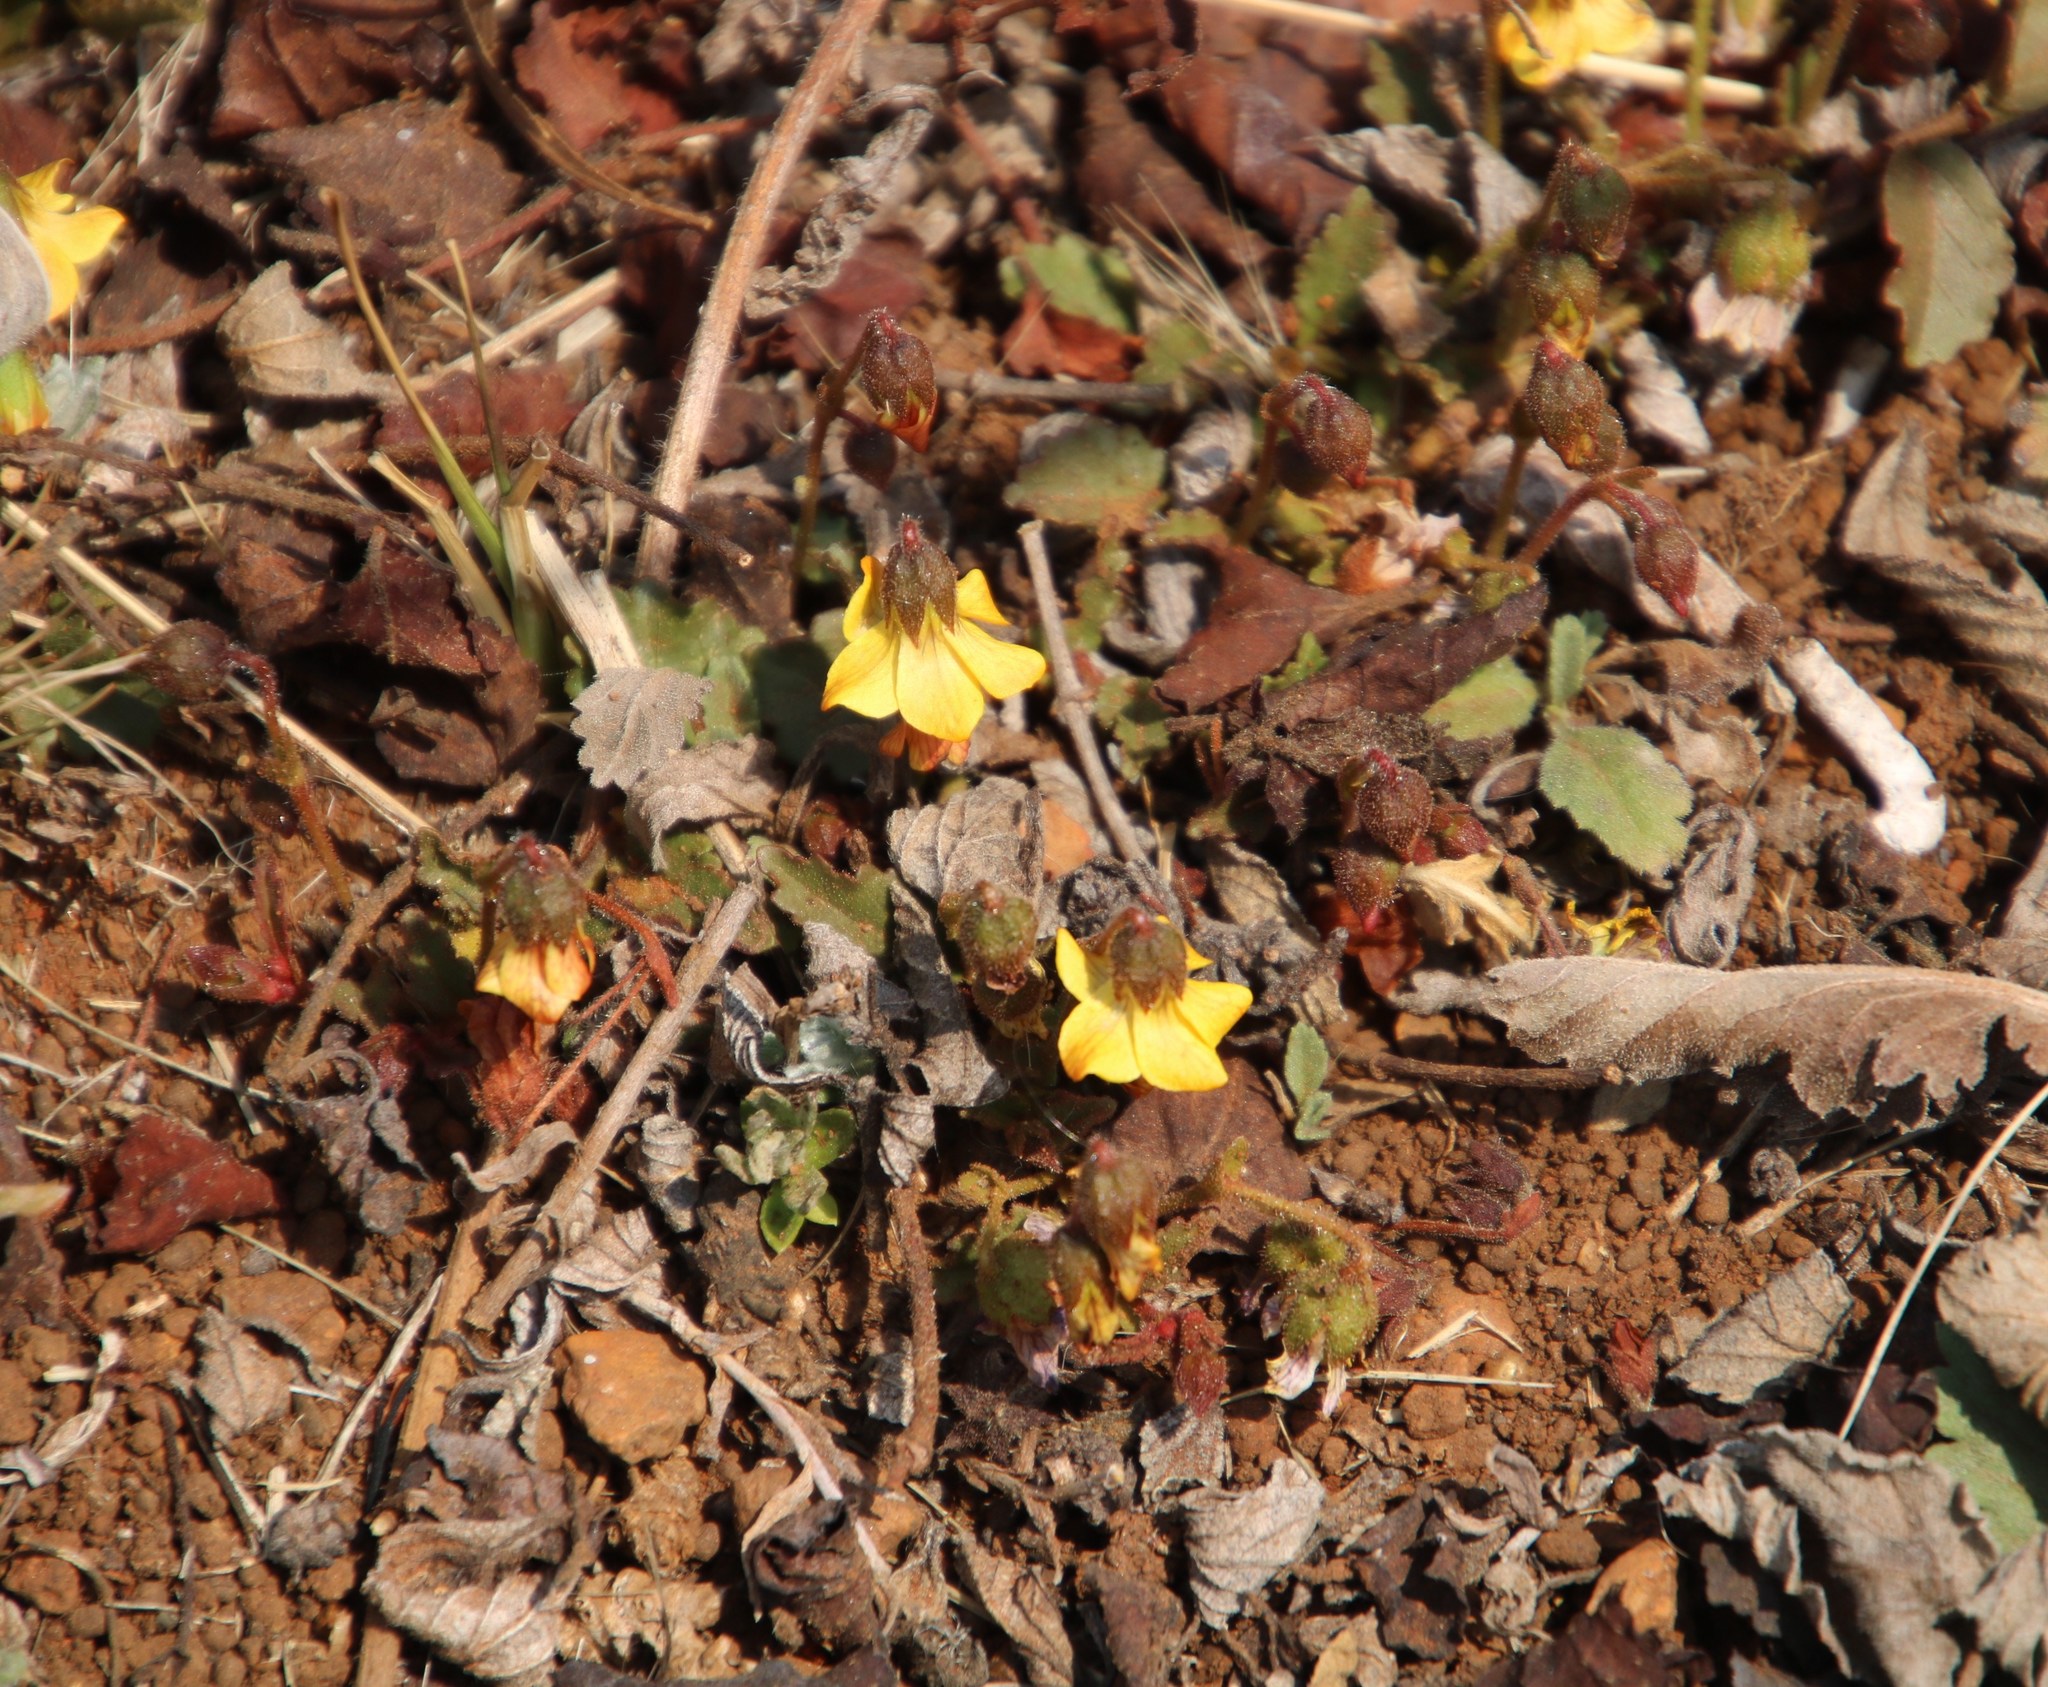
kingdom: Plantae
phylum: Tracheophyta
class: Magnoliopsida
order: Malvales
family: Malvaceae
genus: Hermannia
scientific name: Hermannia depressa
